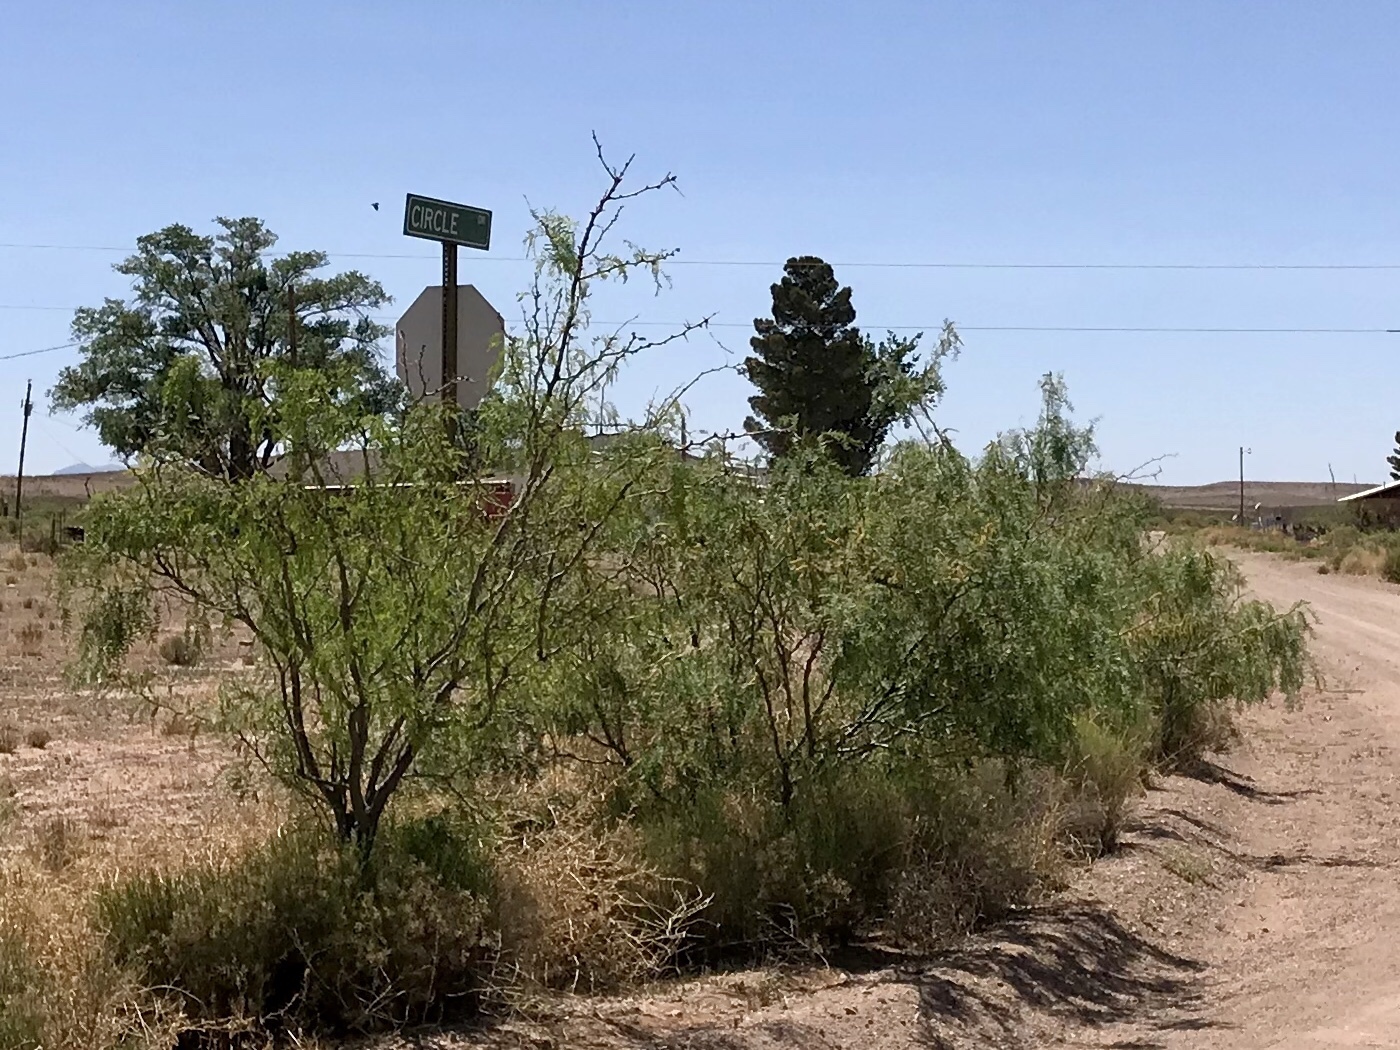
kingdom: Plantae
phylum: Tracheophyta
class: Magnoliopsida
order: Fabales
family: Fabaceae
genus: Prosopis
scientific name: Prosopis glandulosa
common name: Honey mesquite
